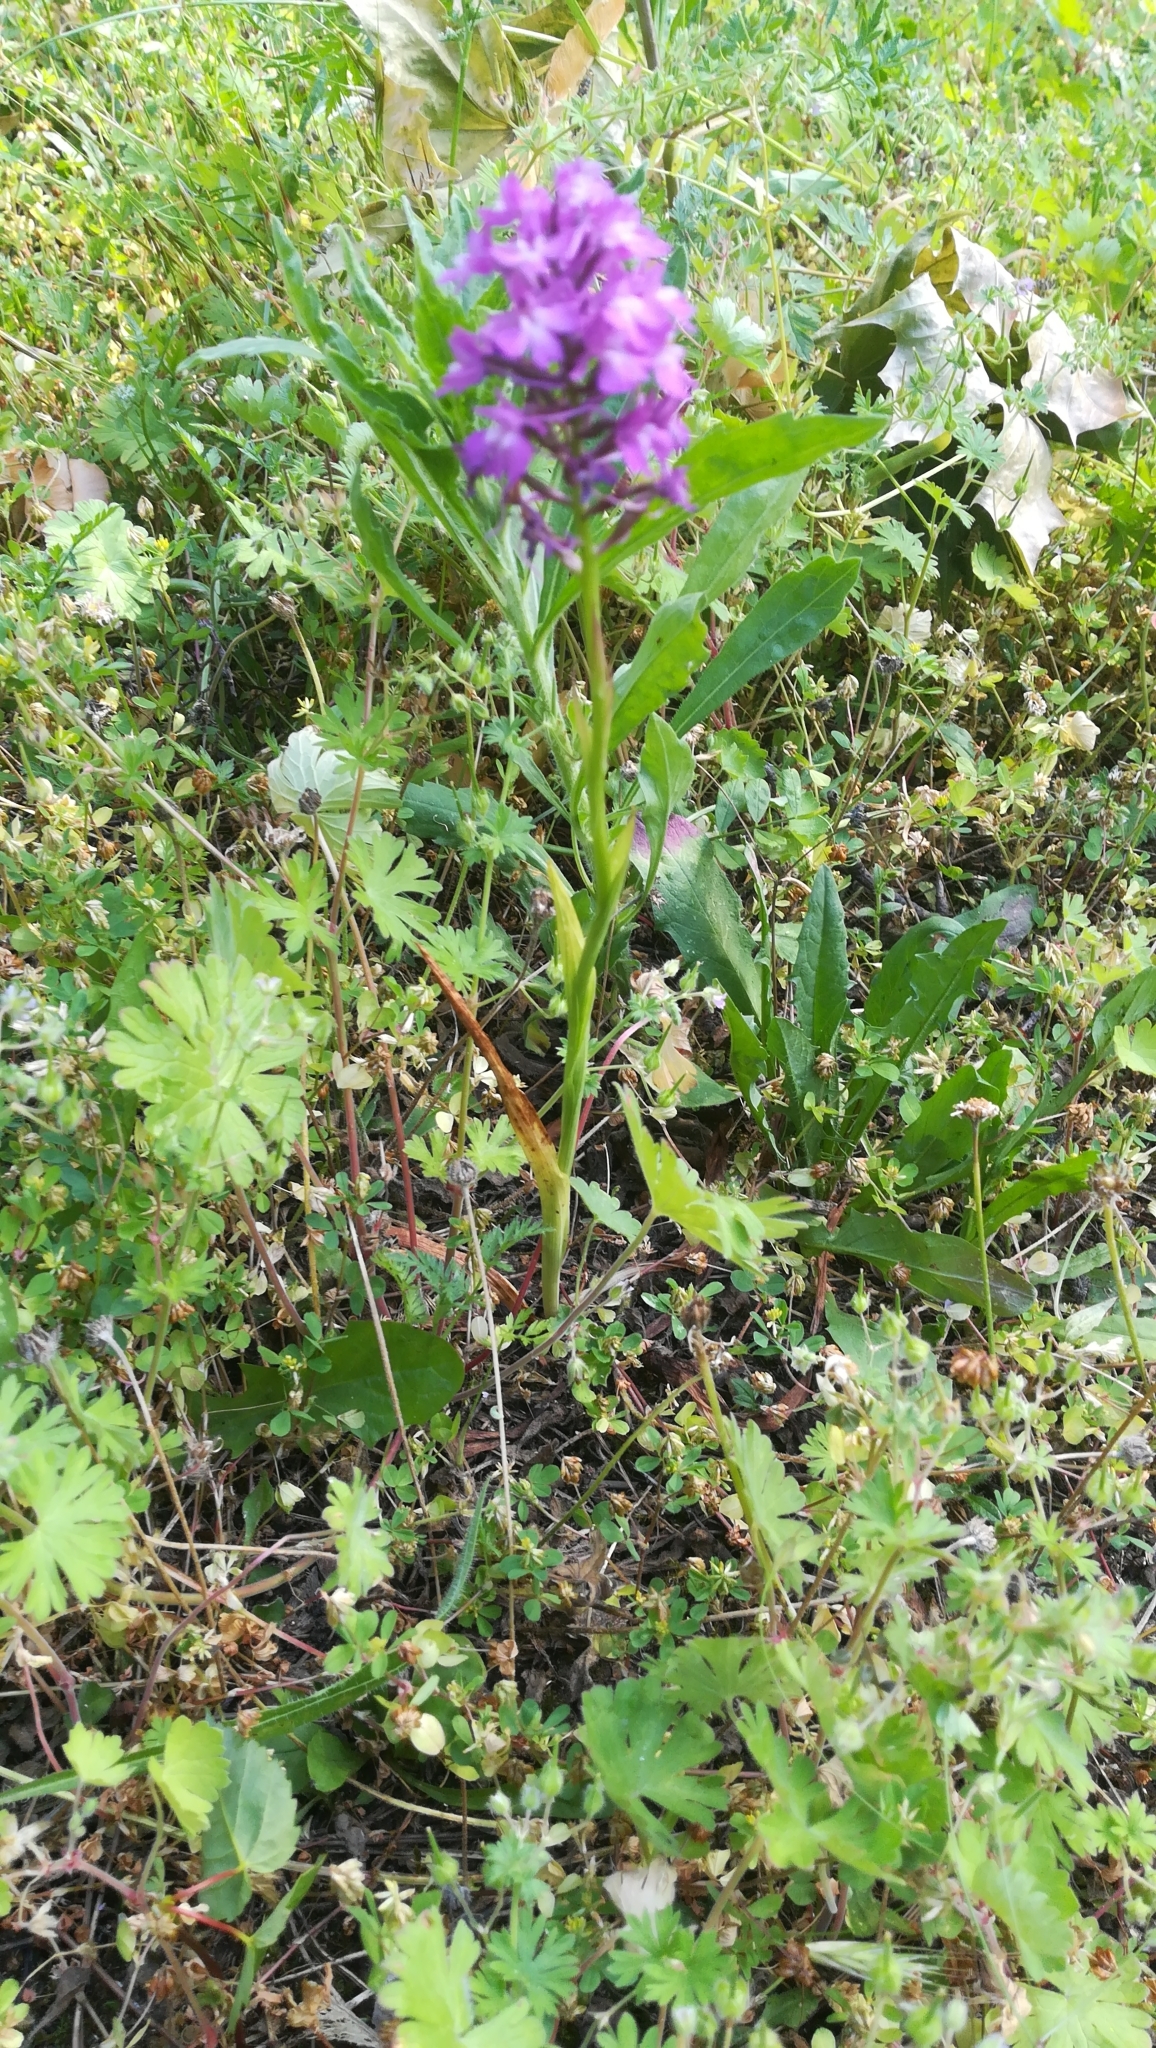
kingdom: Plantae
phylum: Tracheophyta
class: Liliopsida
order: Asparagales
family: Orchidaceae
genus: Anacamptis
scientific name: Anacamptis pyramidalis
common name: Pyramidal orchid
